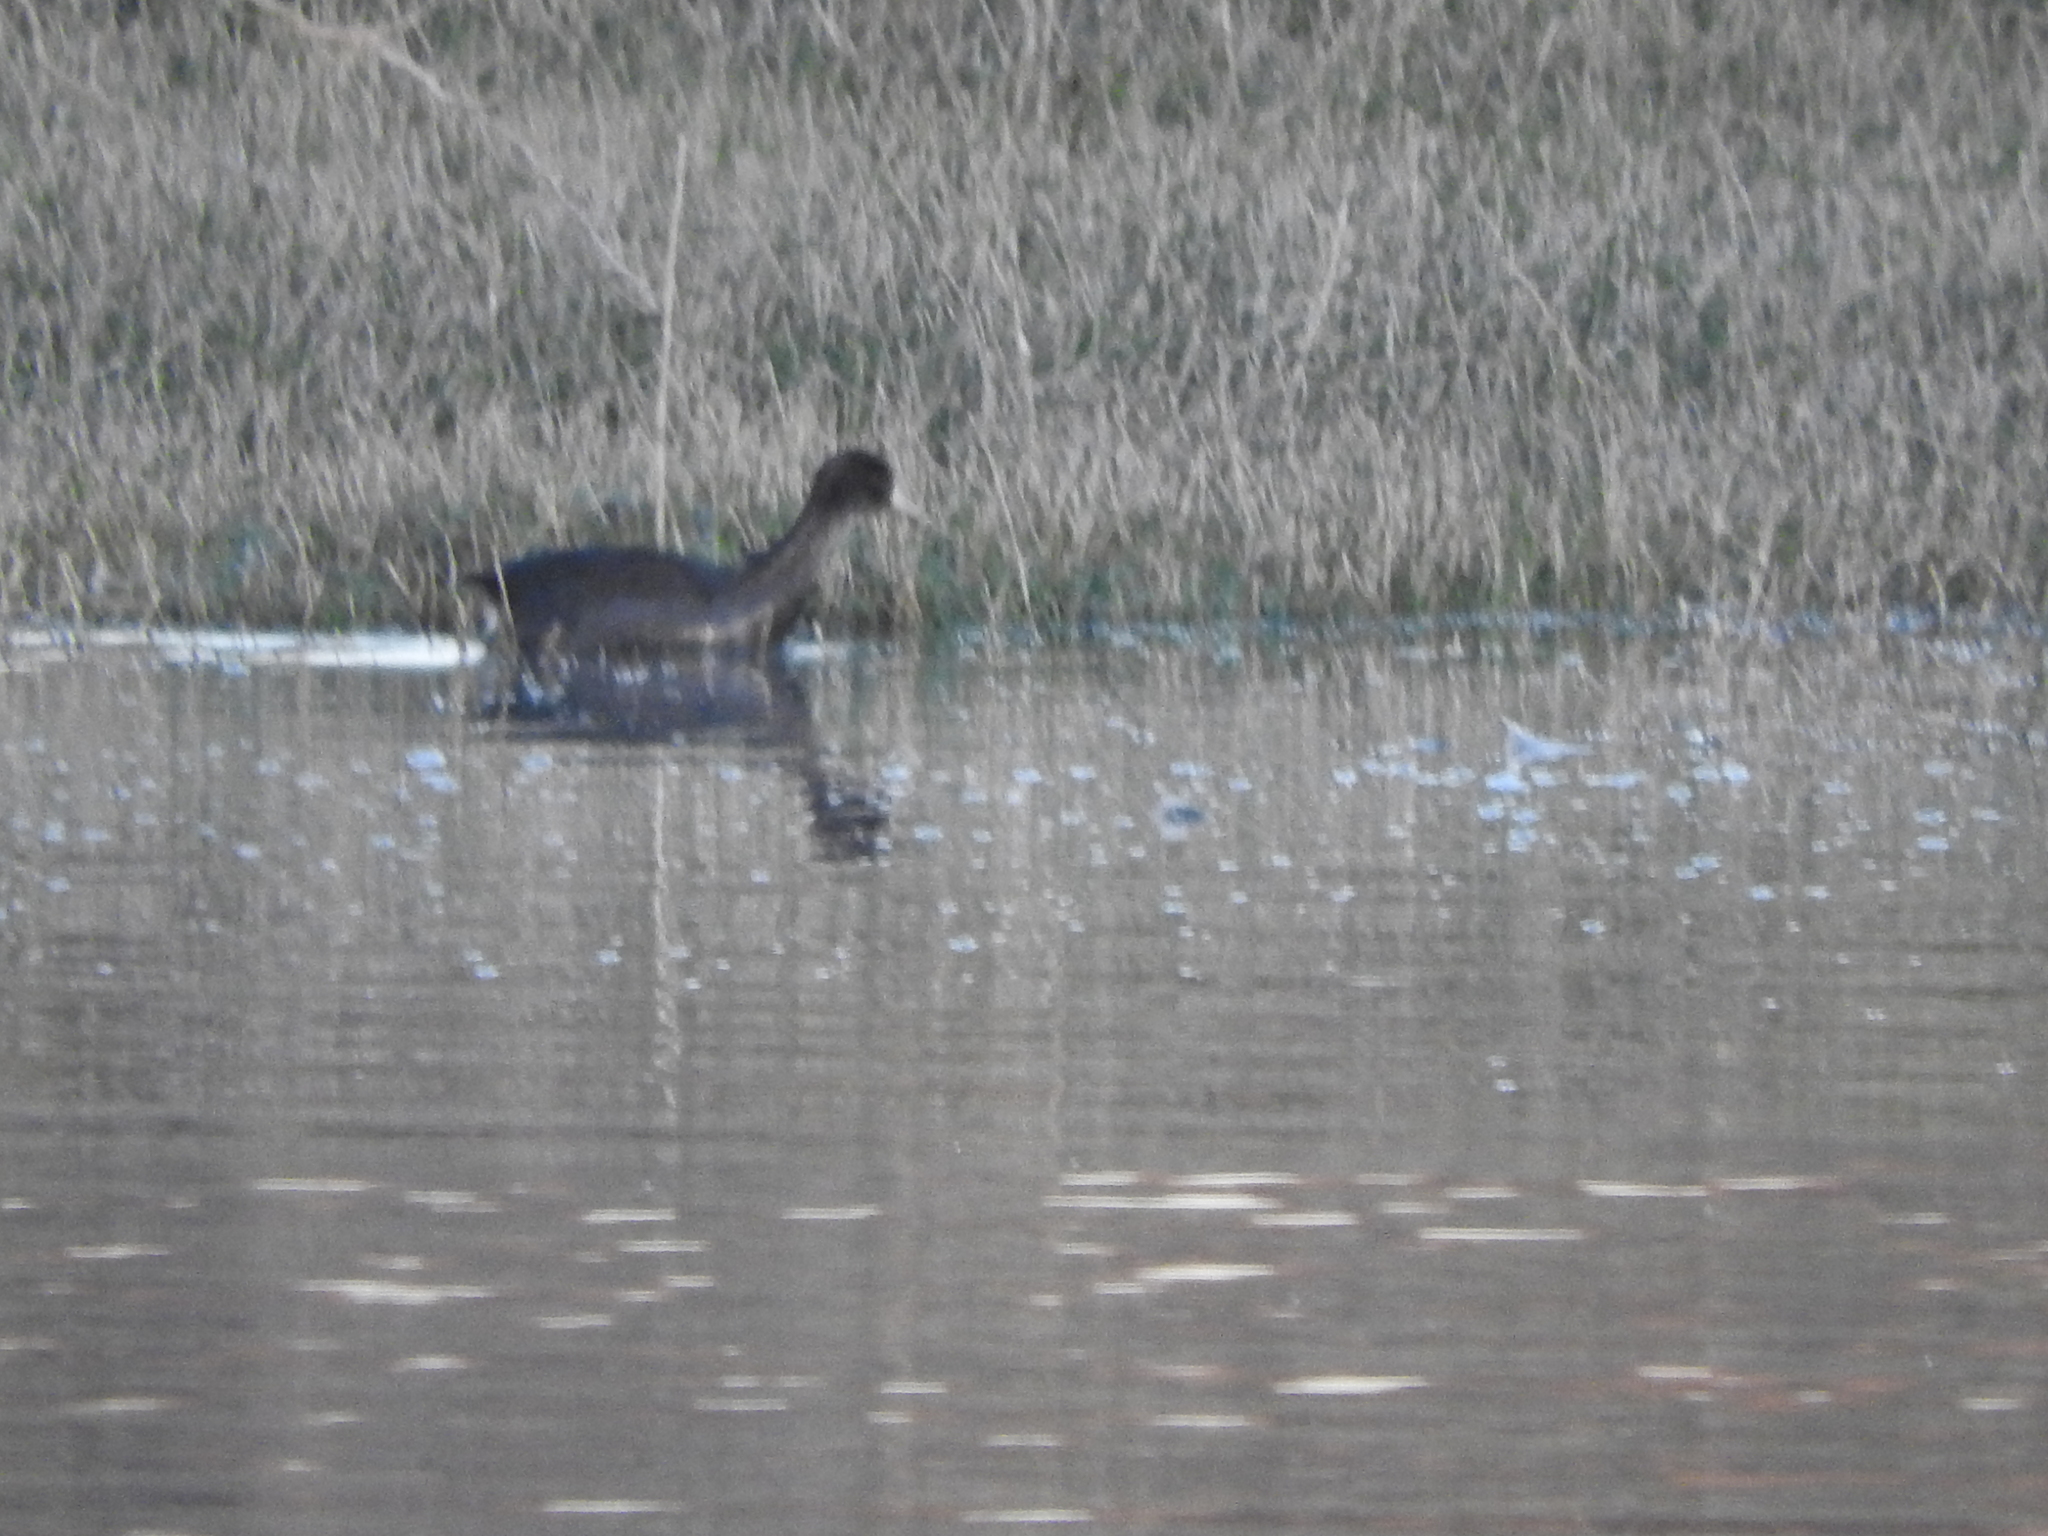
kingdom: Animalia
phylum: Chordata
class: Aves
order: Gruiformes
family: Rallidae
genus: Fulica
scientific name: Fulica americana
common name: American coot
